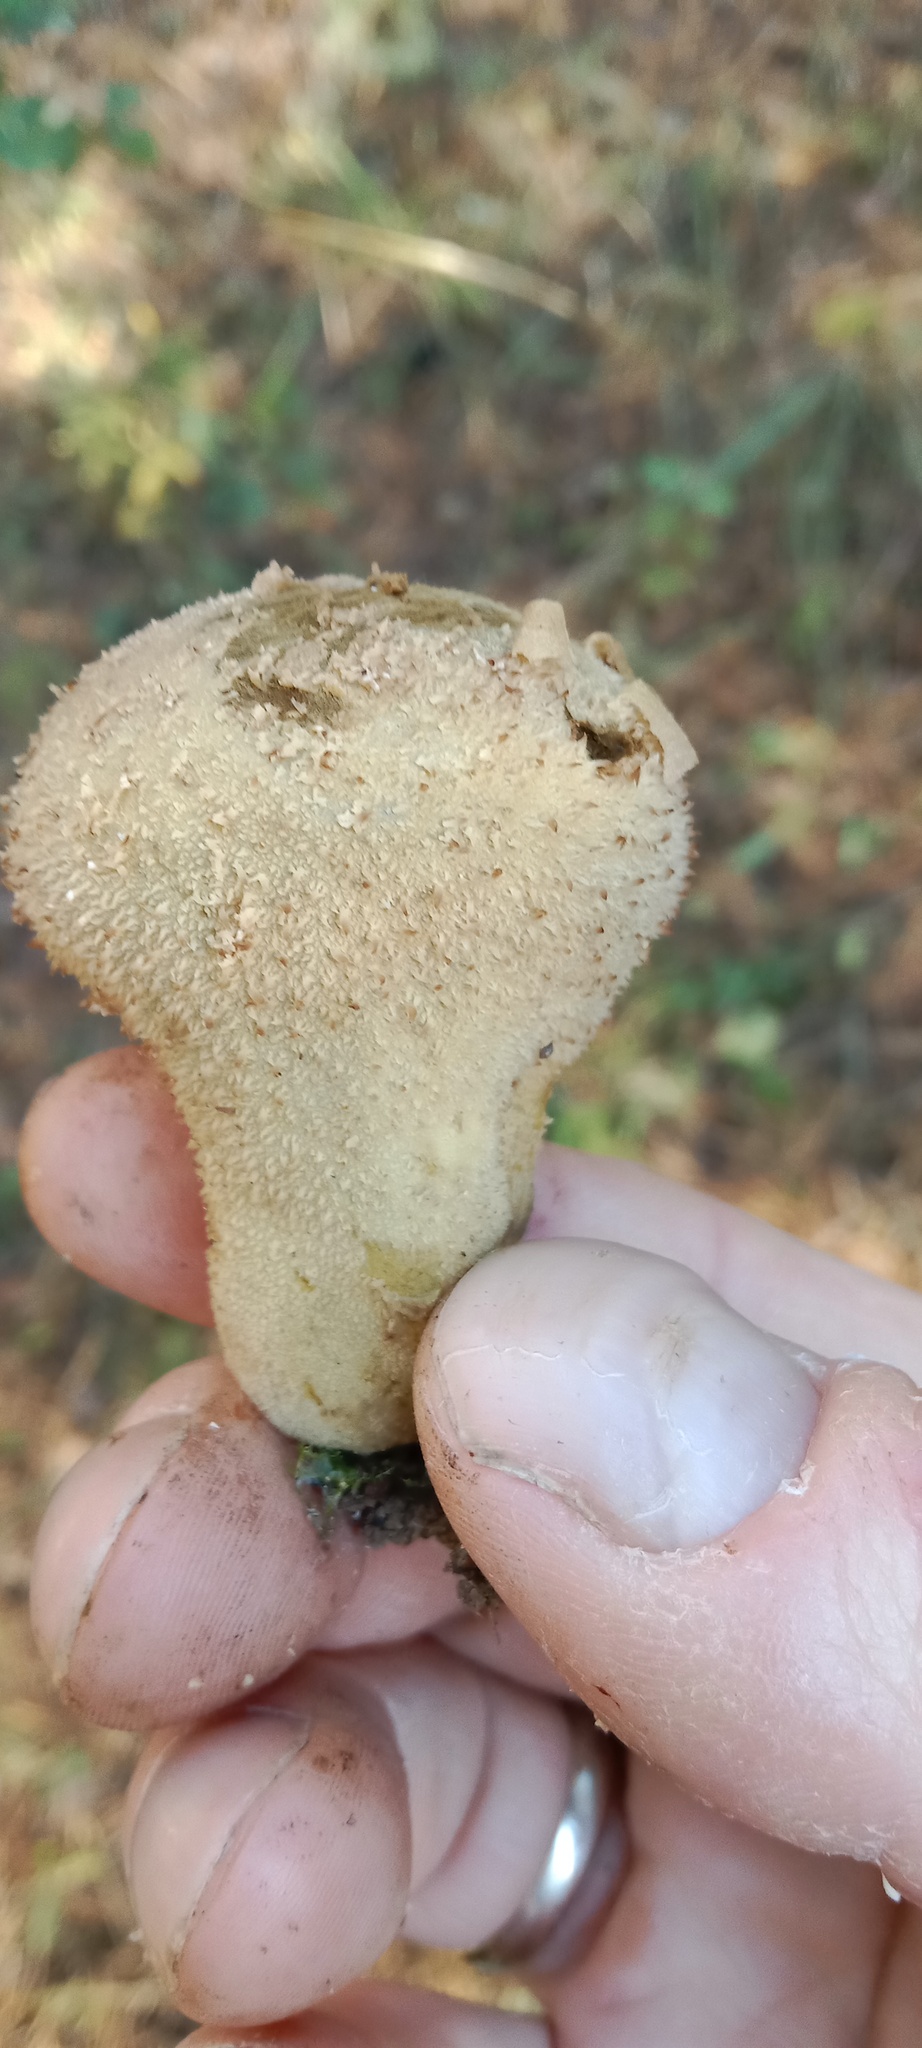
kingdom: Fungi
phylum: Basidiomycota
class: Agaricomycetes
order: Agaricales
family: Agaricaceae
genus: Lycoperdon
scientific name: Lycoperdon marginatum
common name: Peeling puffball
